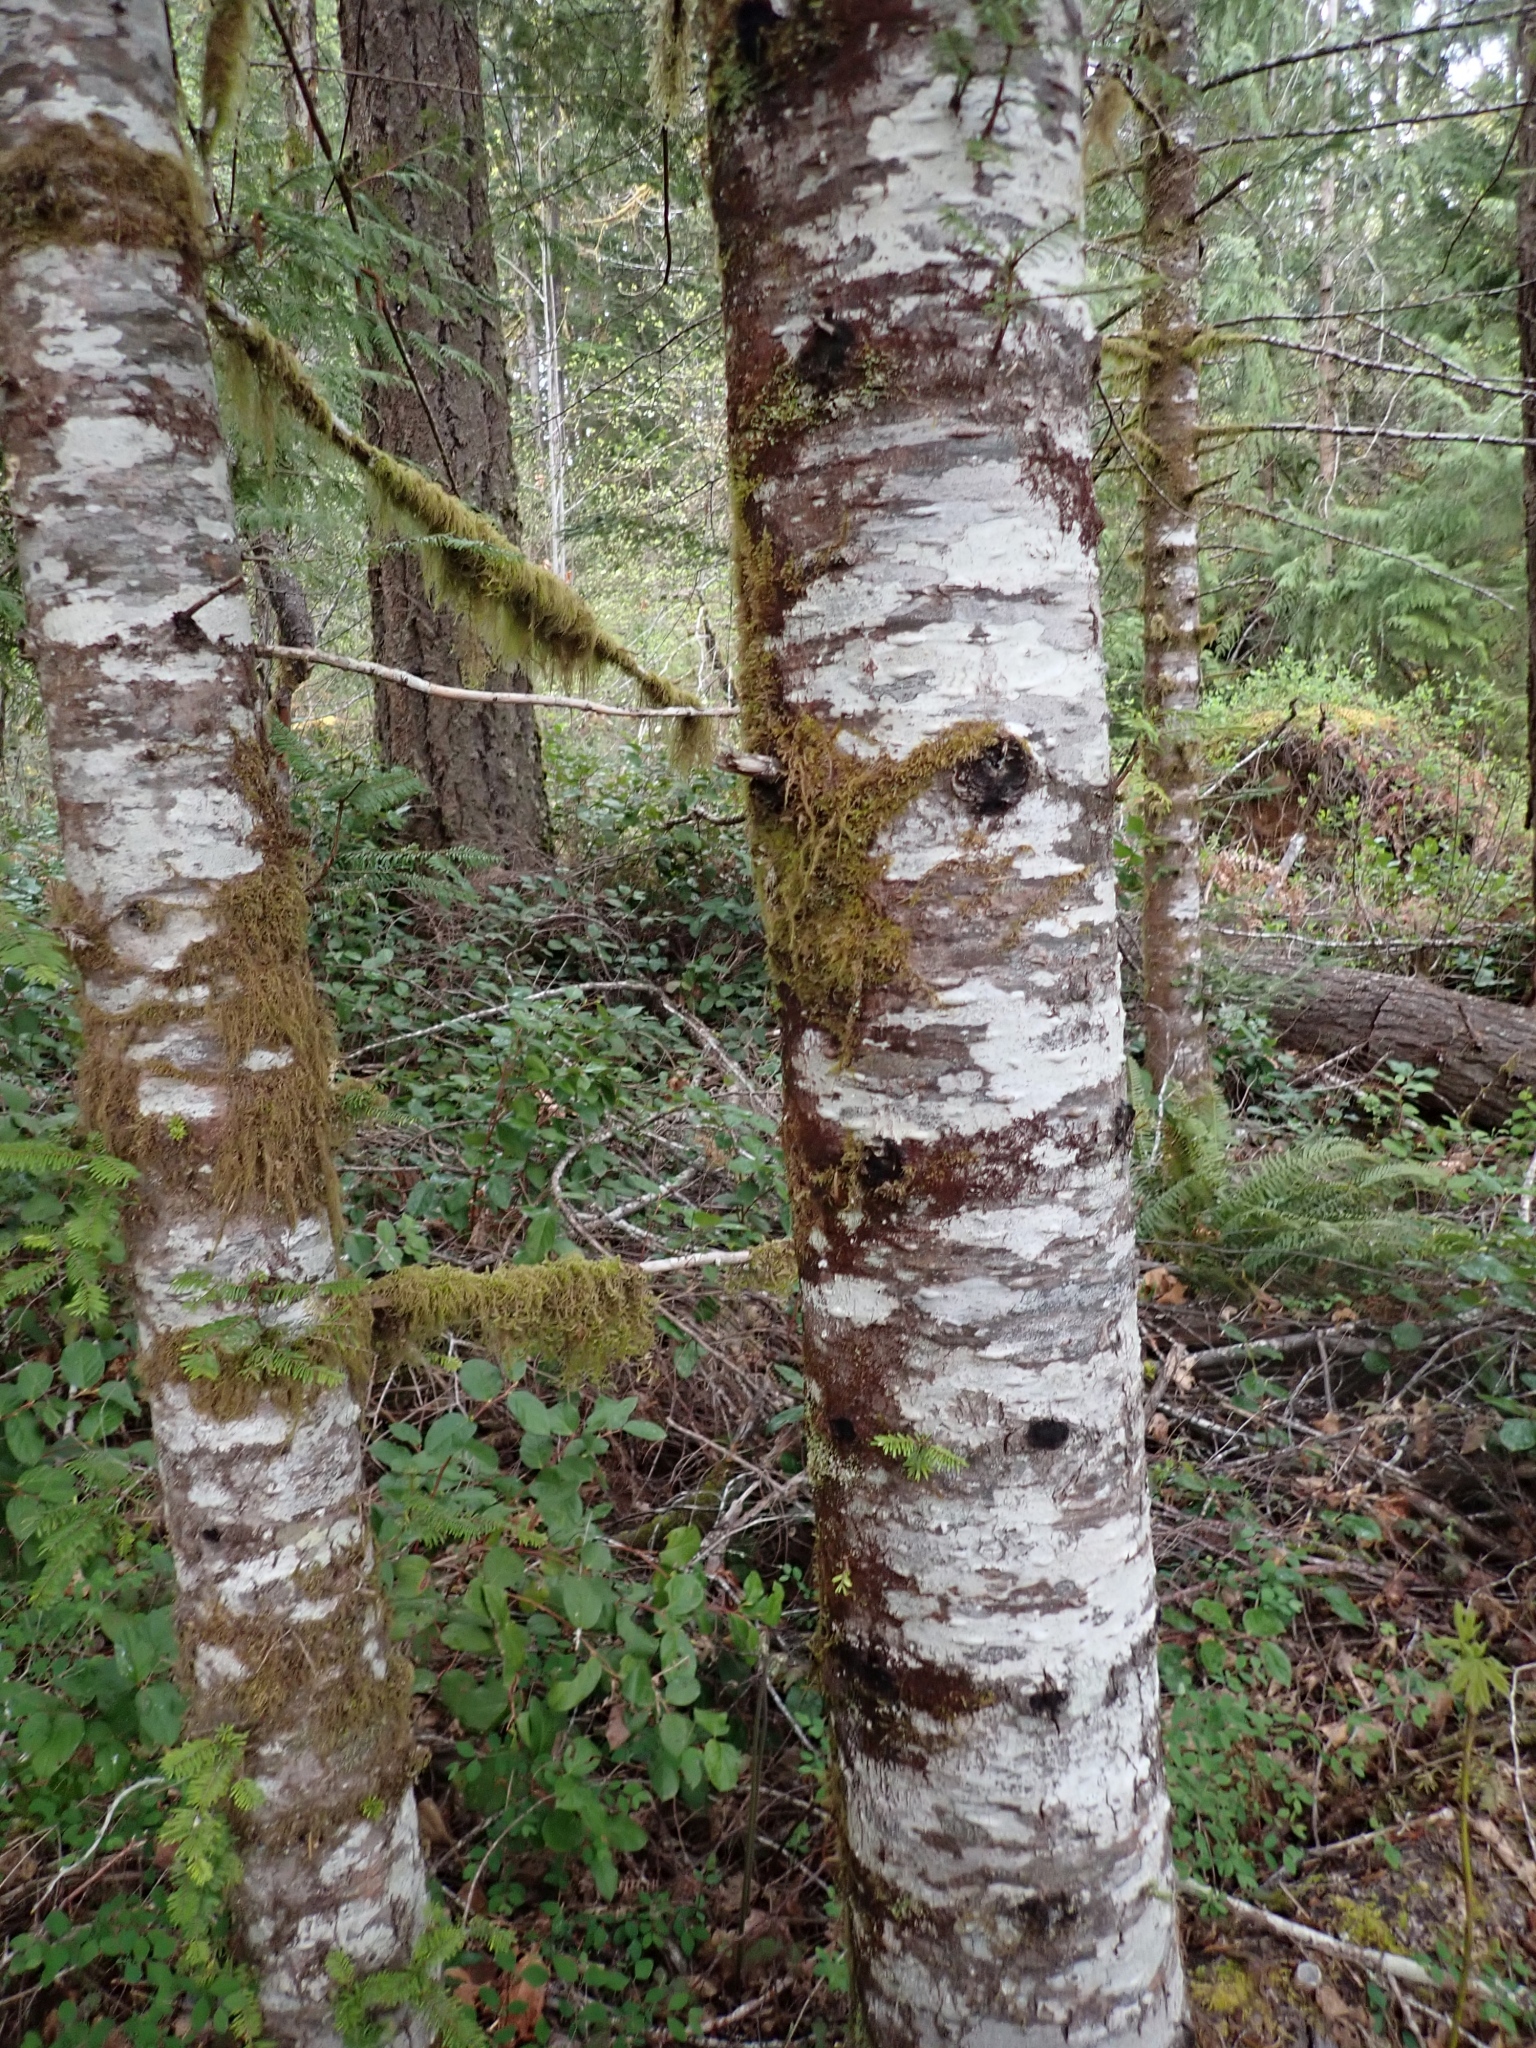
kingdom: Plantae
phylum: Tracheophyta
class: Magnoliopsida
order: Fagales
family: Betulaceae
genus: Alnus
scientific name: Alnus rubra
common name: Red alder
